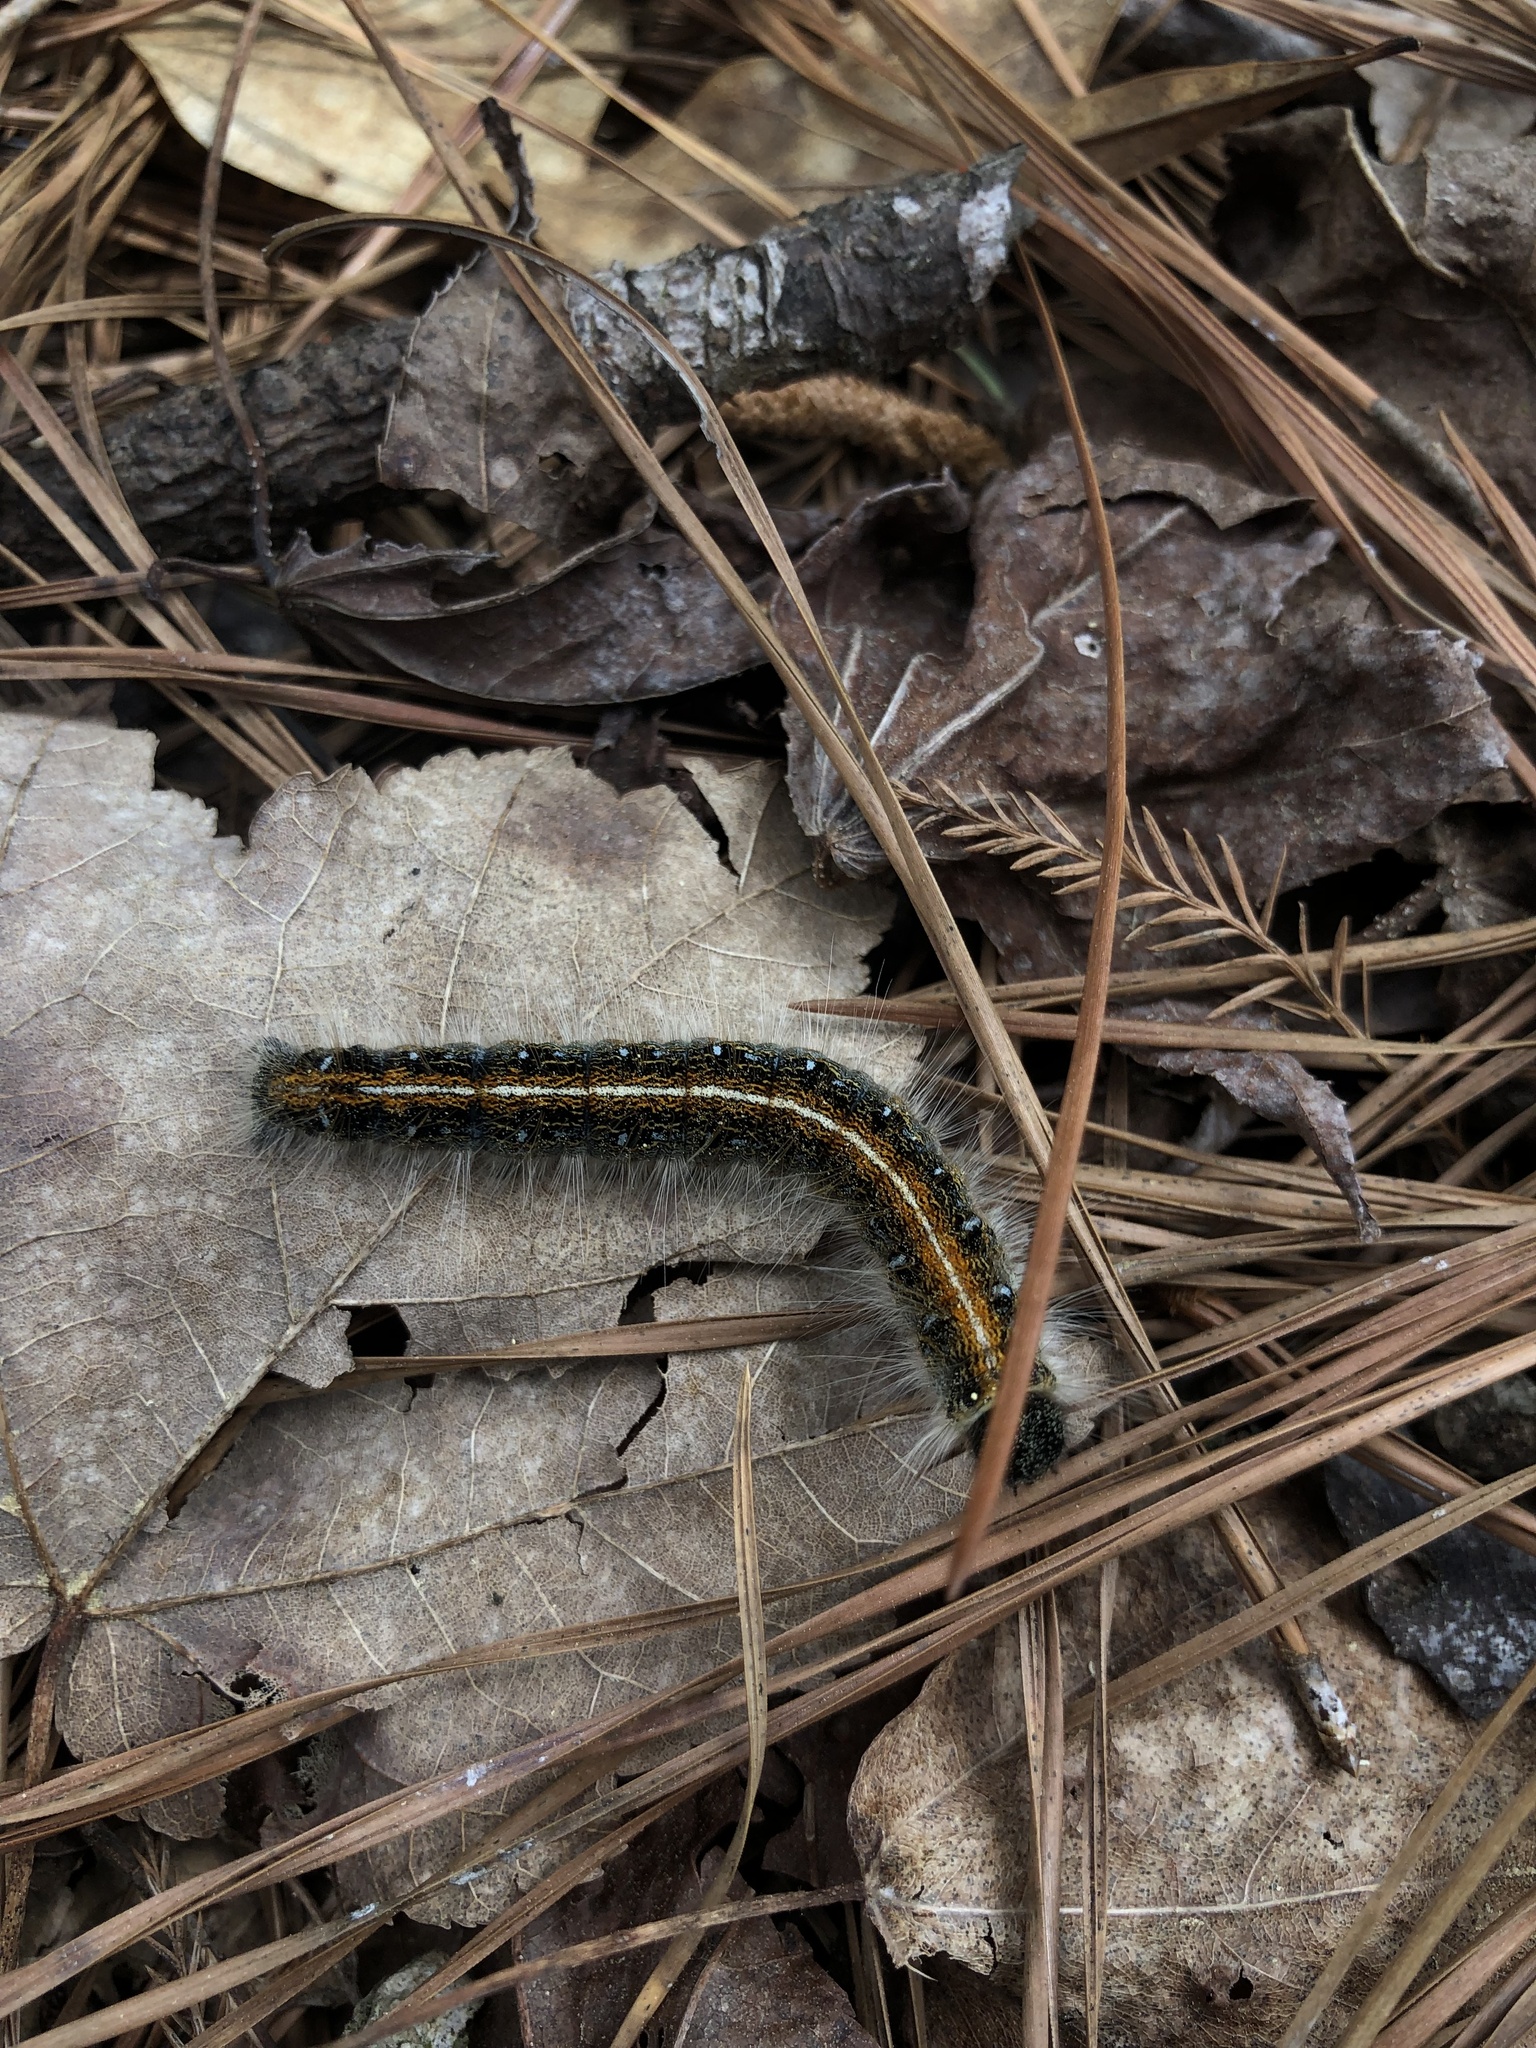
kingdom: Animalia
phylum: Arthropoda
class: Insecta
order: Lepidoptera
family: Lasiocampidae
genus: Malacosoma
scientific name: Malacosoma americana
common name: Eastern tent caterpillar moth
